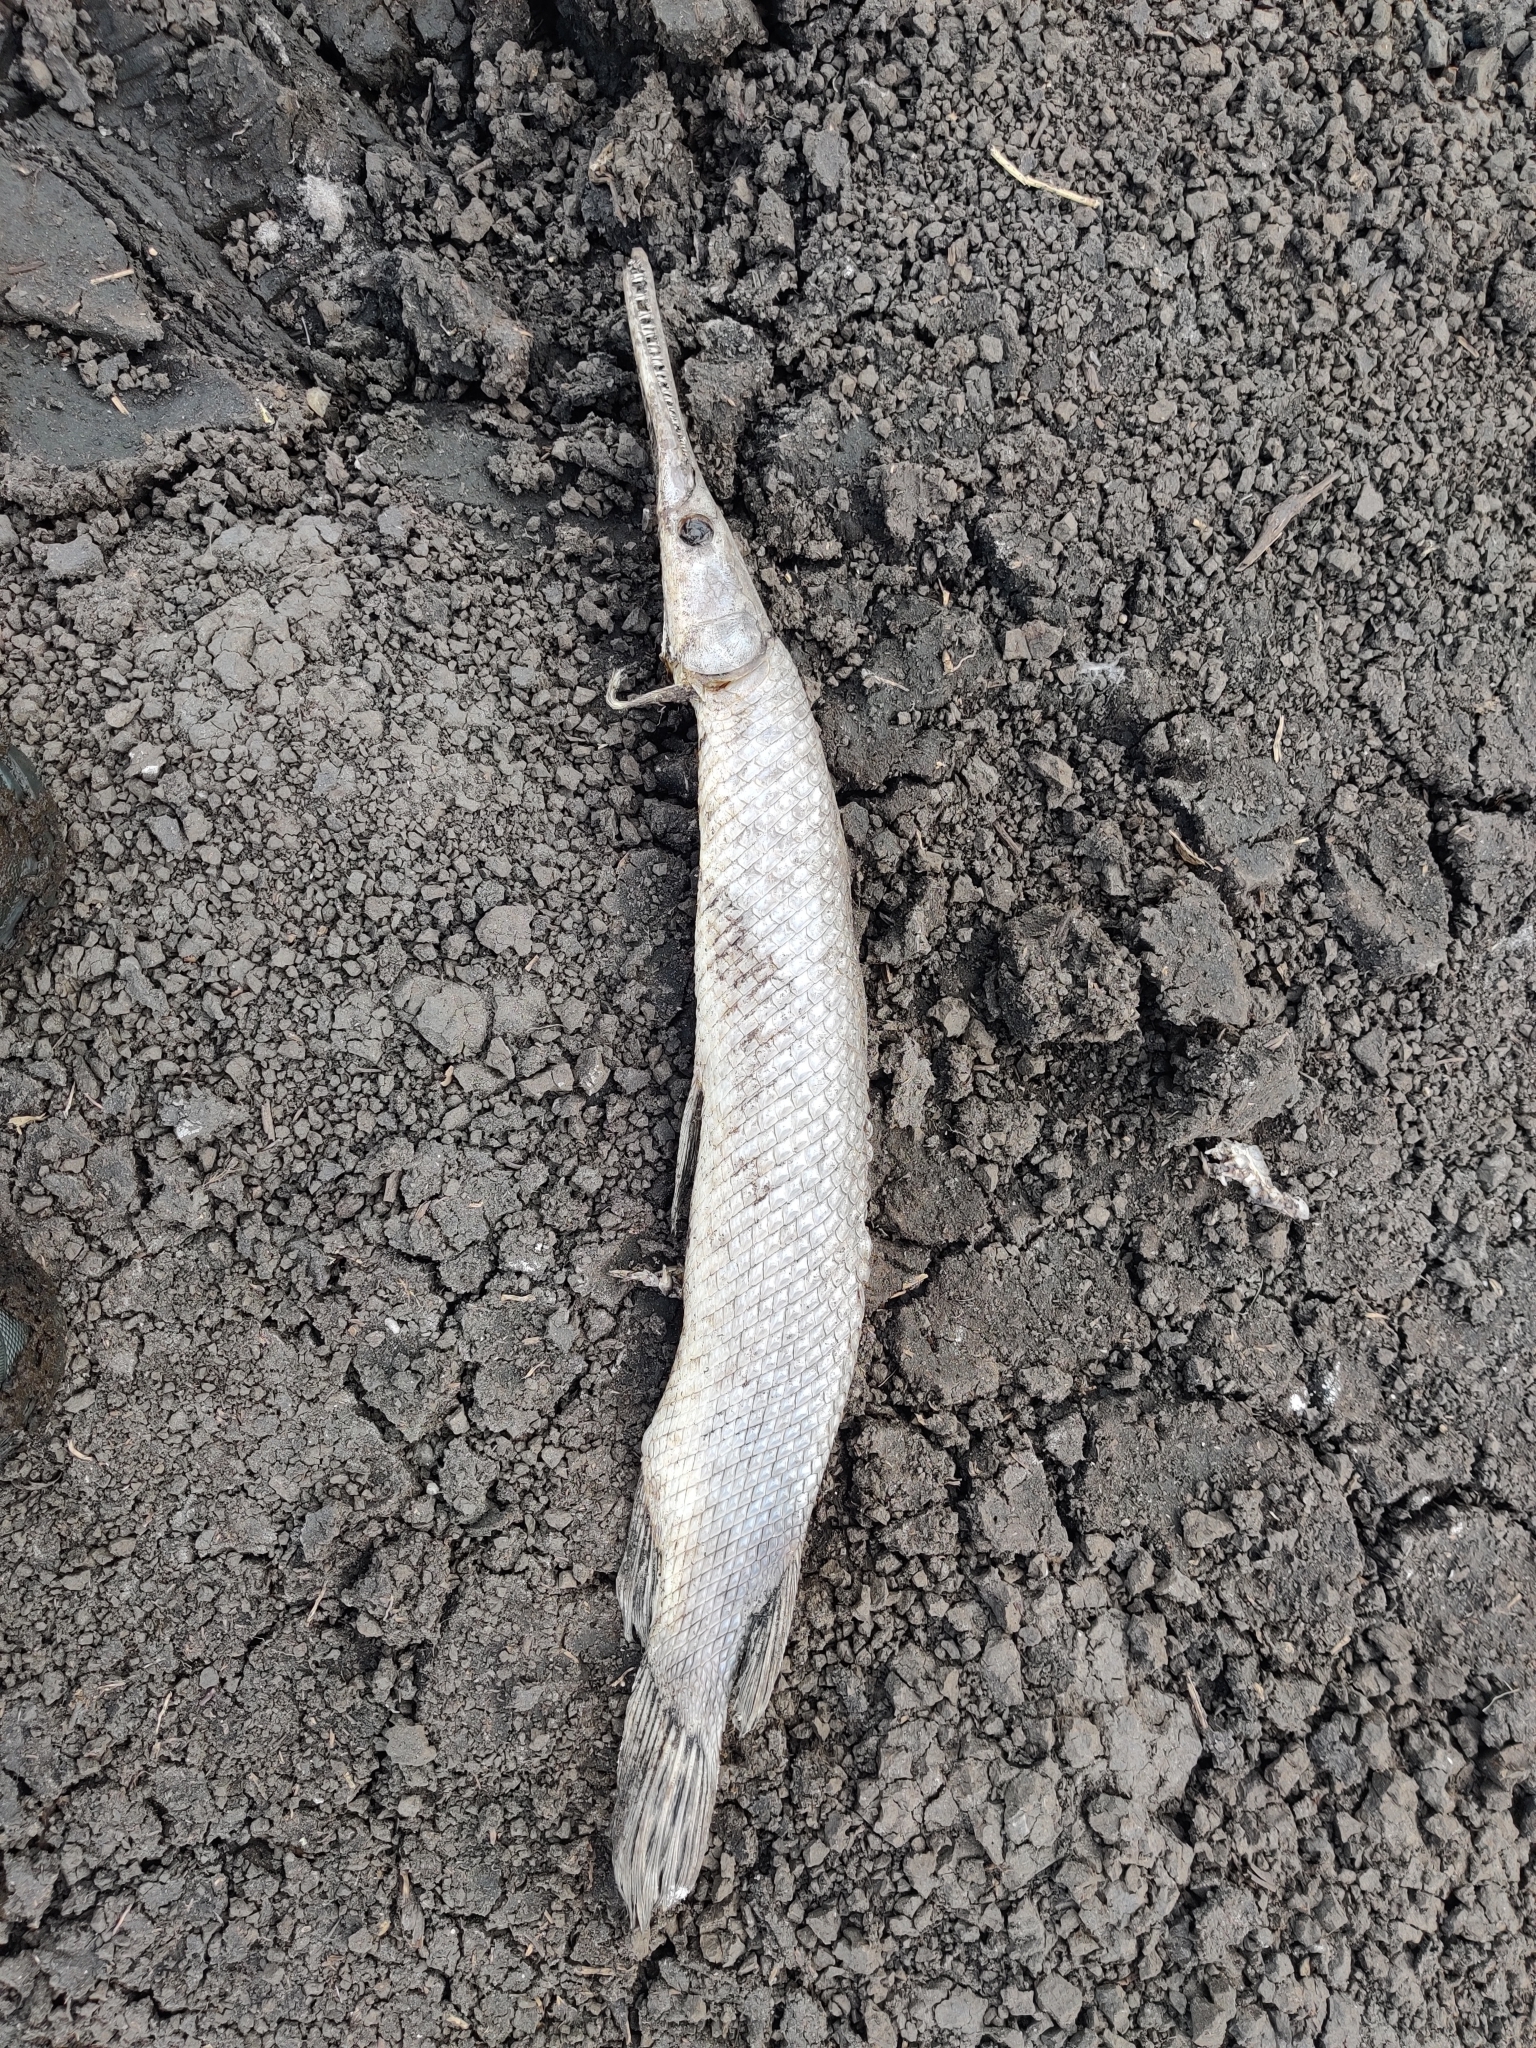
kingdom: Animalia
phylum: Chordata
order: Lepisosteiformes
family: Lepisosteidae
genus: Lepisosteus
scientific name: Lepisosteus platyrhincus
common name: Florida gar
